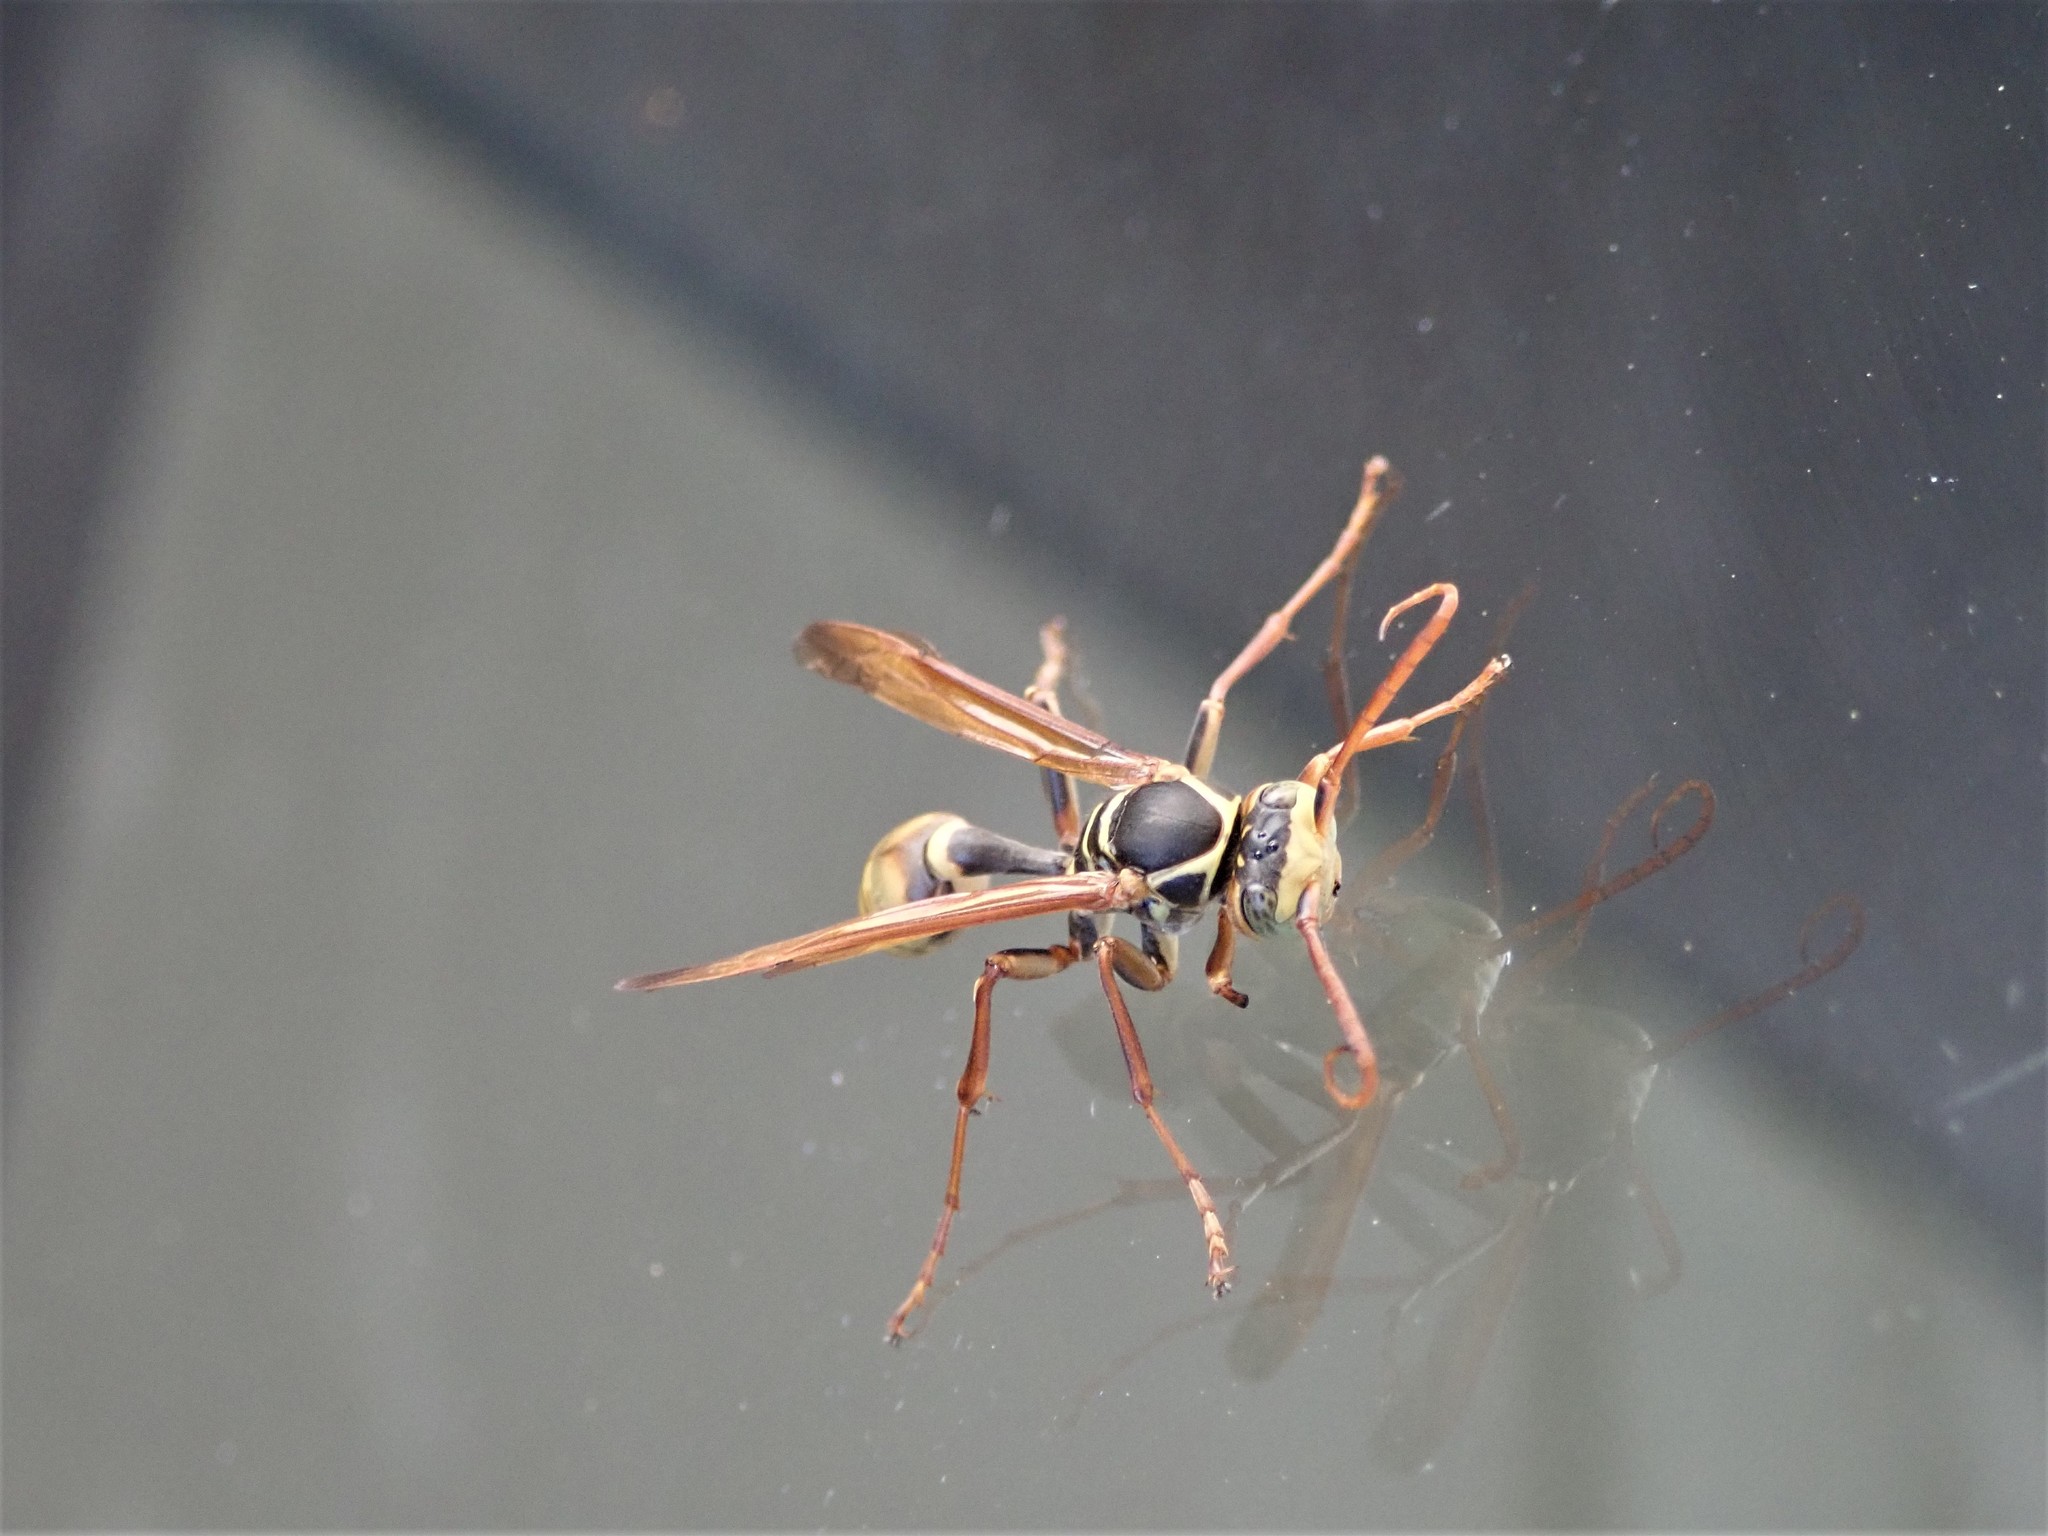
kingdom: Animalia
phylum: Arthropoda
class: Insecta
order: Hymenoptera
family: Vespidae
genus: Mischocyttarus
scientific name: Mischocyttarus flavitarsis
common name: Wasp
